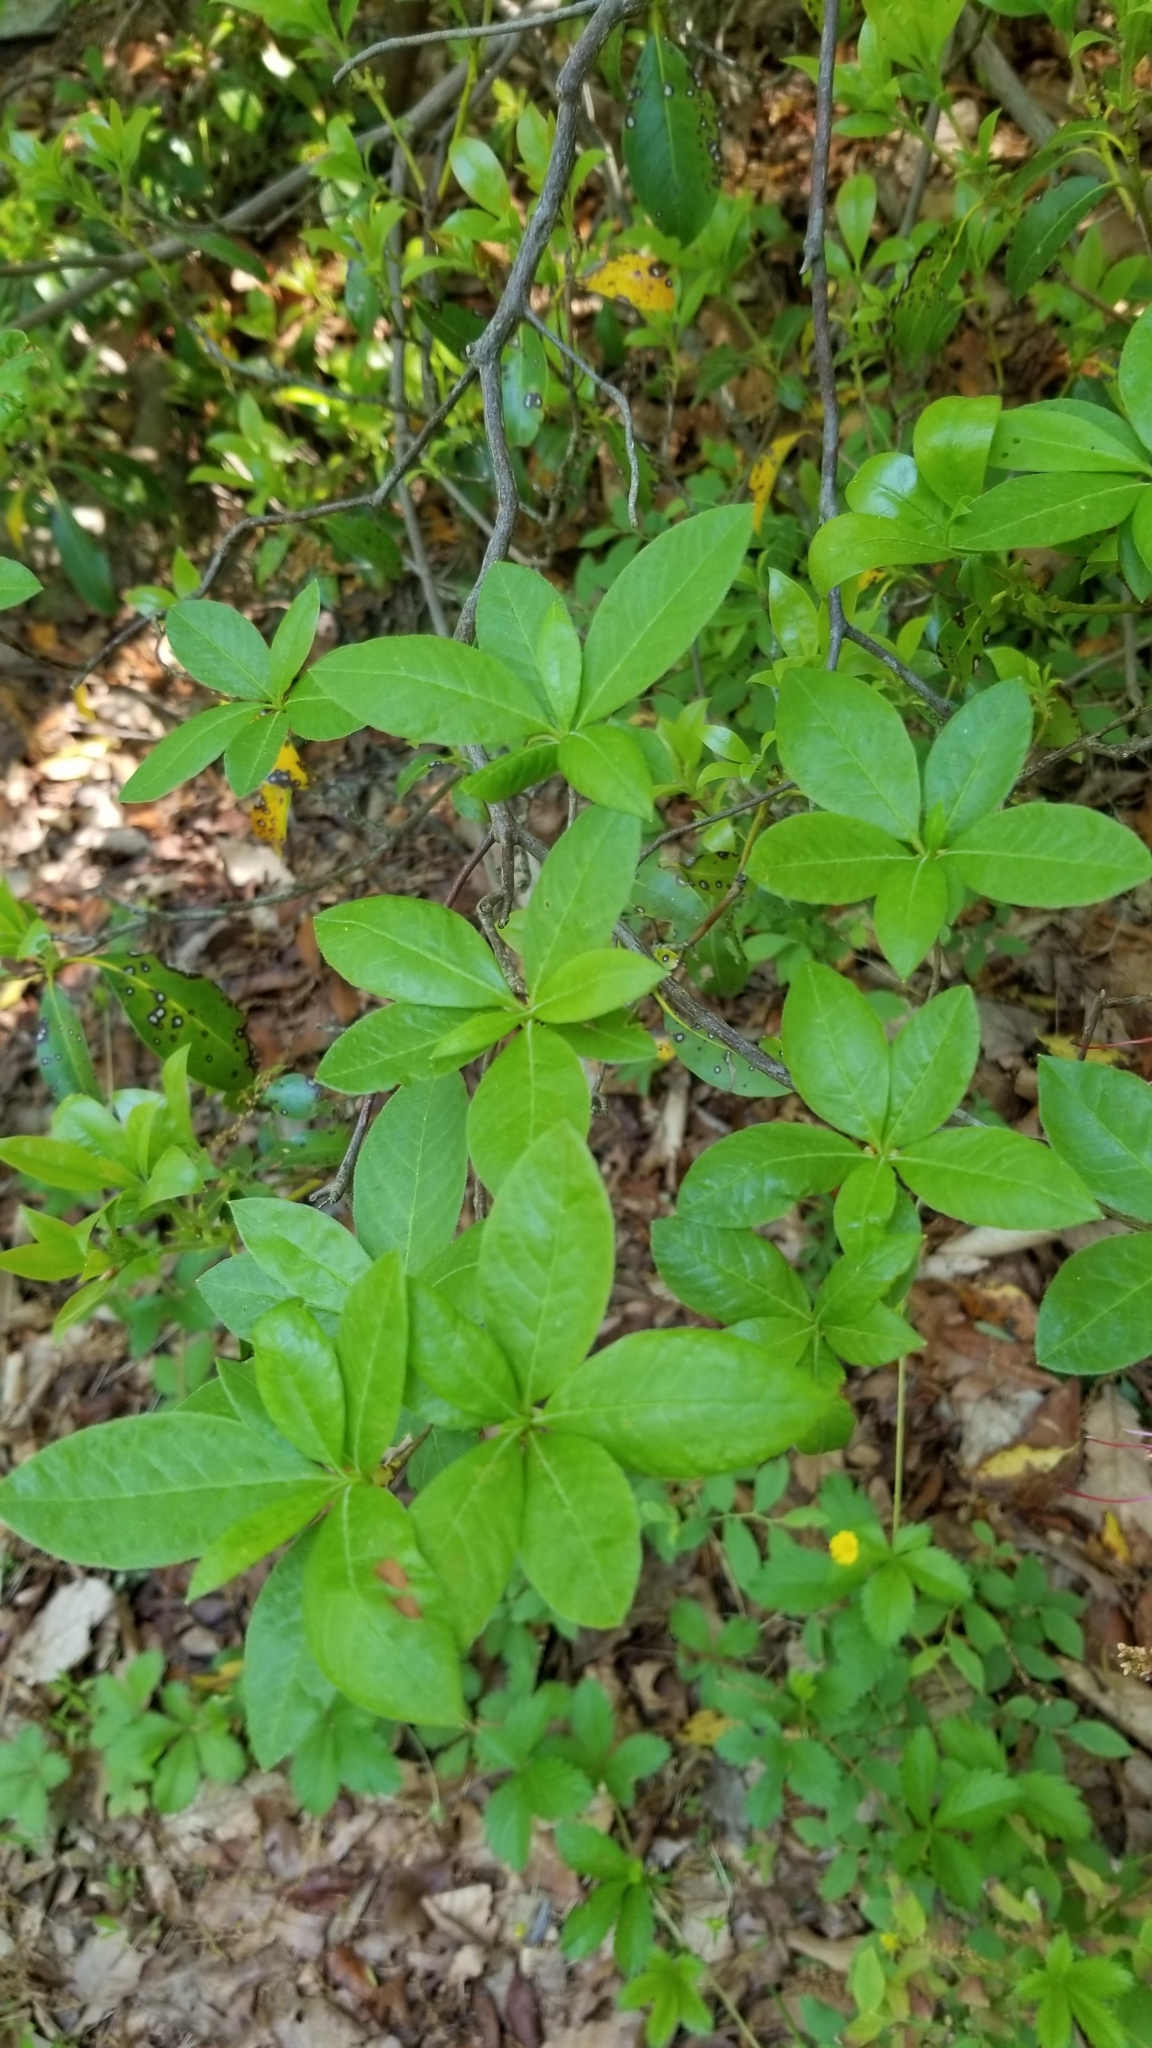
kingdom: Plantae
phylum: Tracheophyta
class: Magnoliopsida
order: Ericales
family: Ericaceae
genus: Rhododendron
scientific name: Rhododendron periclymenoides
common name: Election-pink
